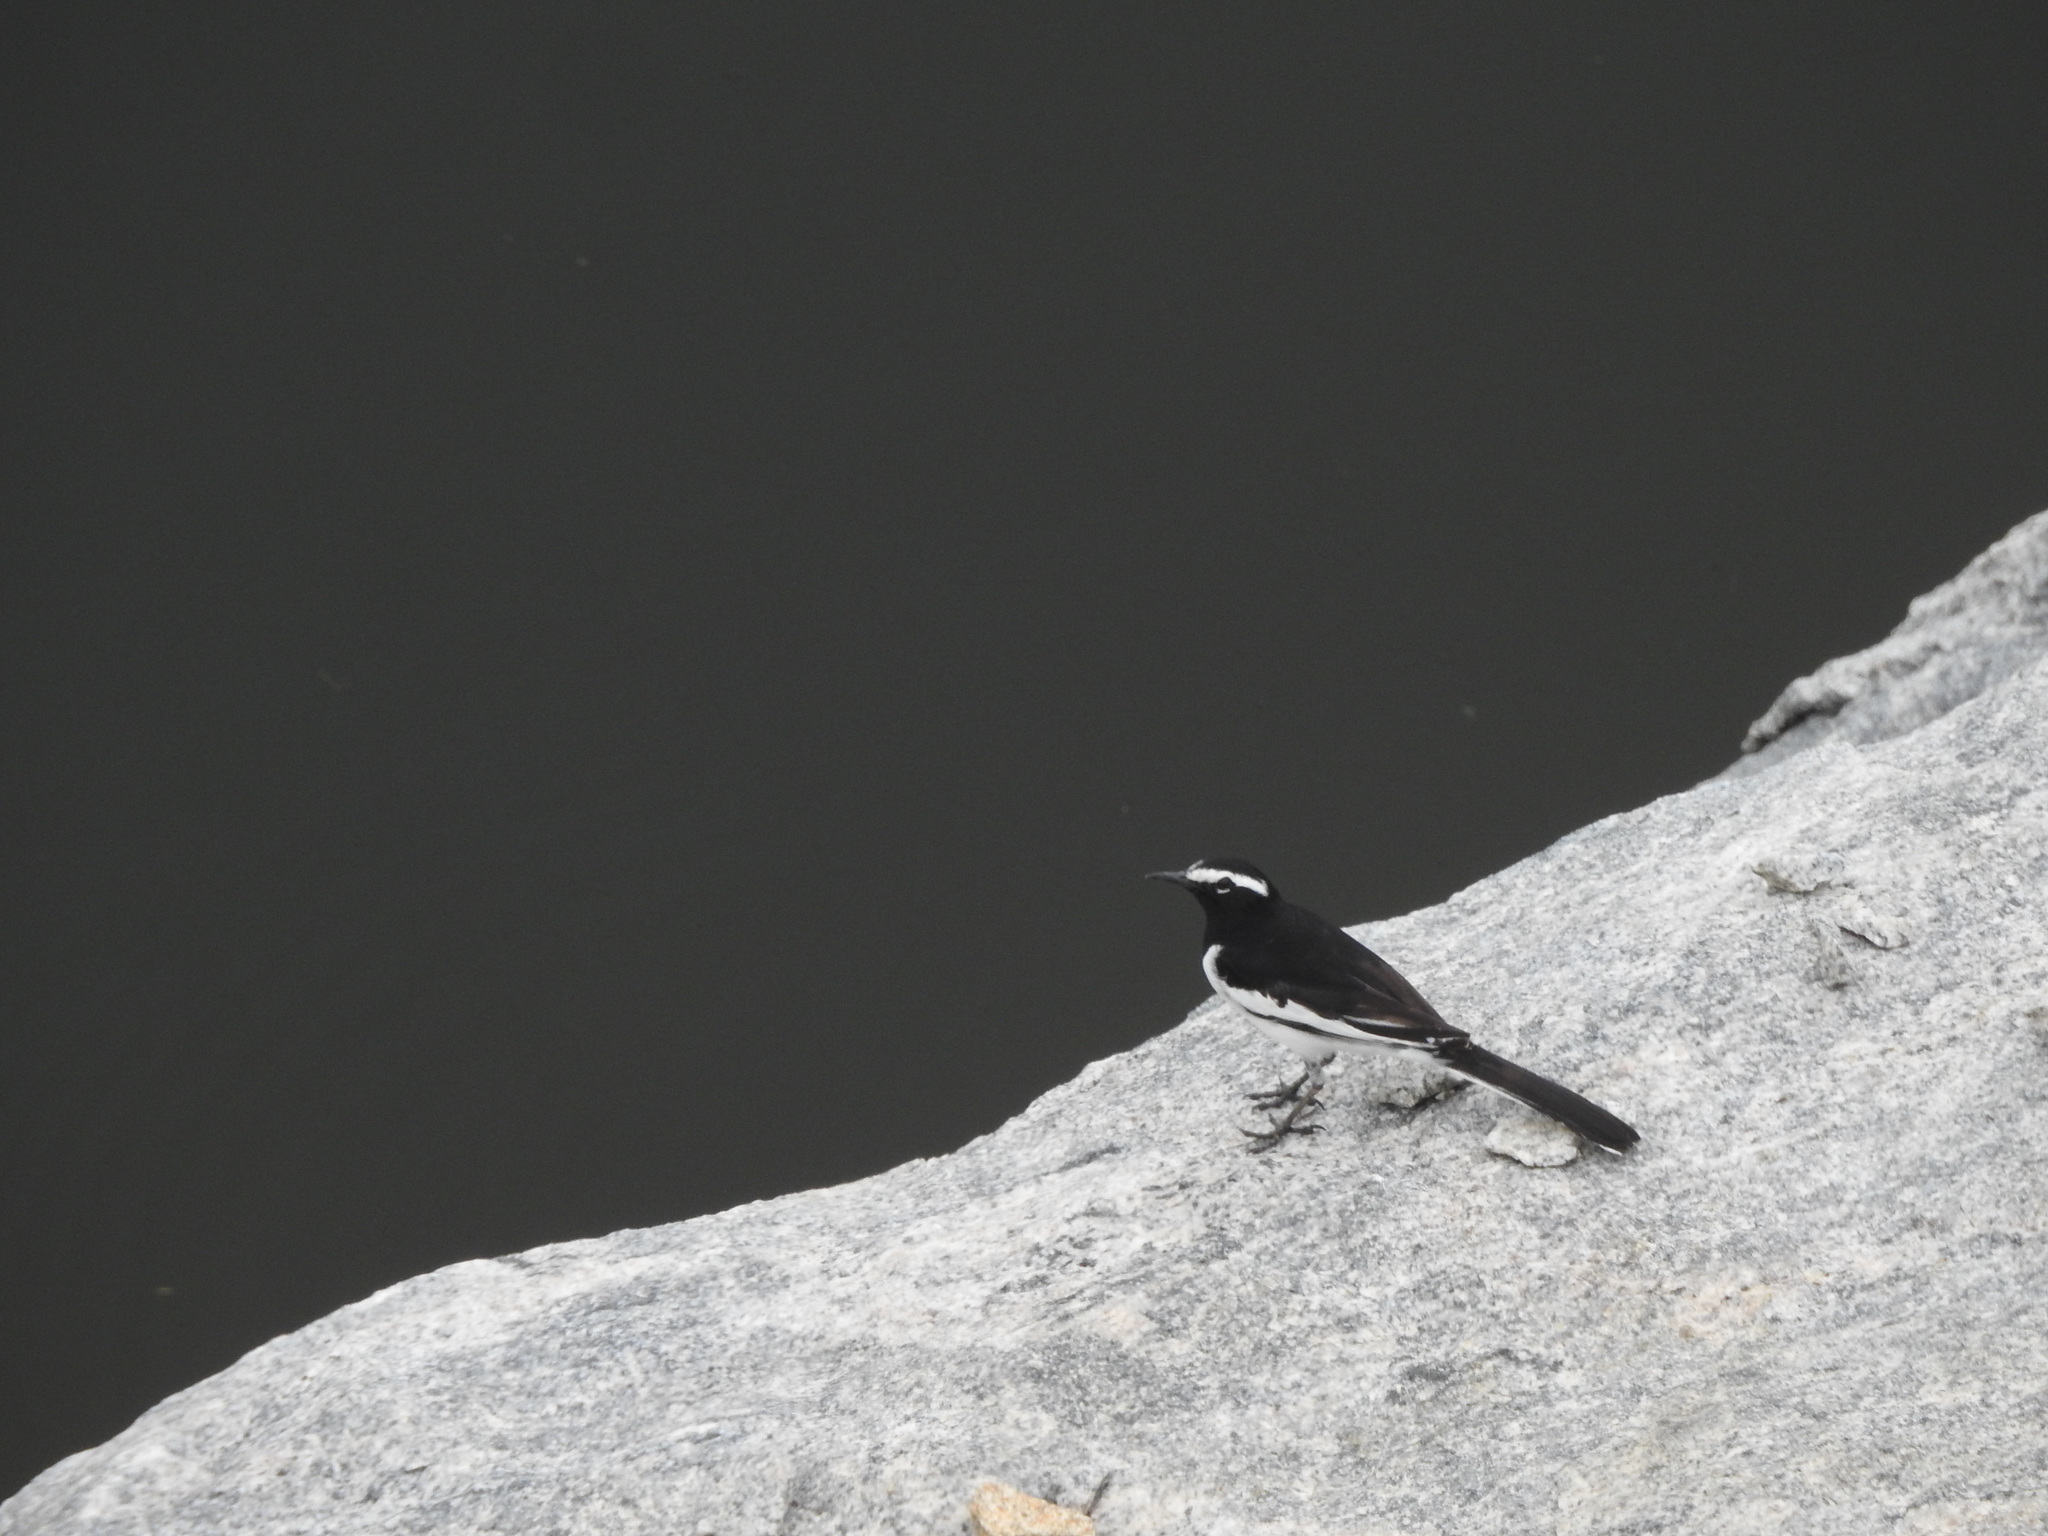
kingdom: Animalia
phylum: Chordata
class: Aves
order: Passeriformes
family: Motacillidae
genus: Motacilla
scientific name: Motacilla maderaspatensis
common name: White-browed wagtail
